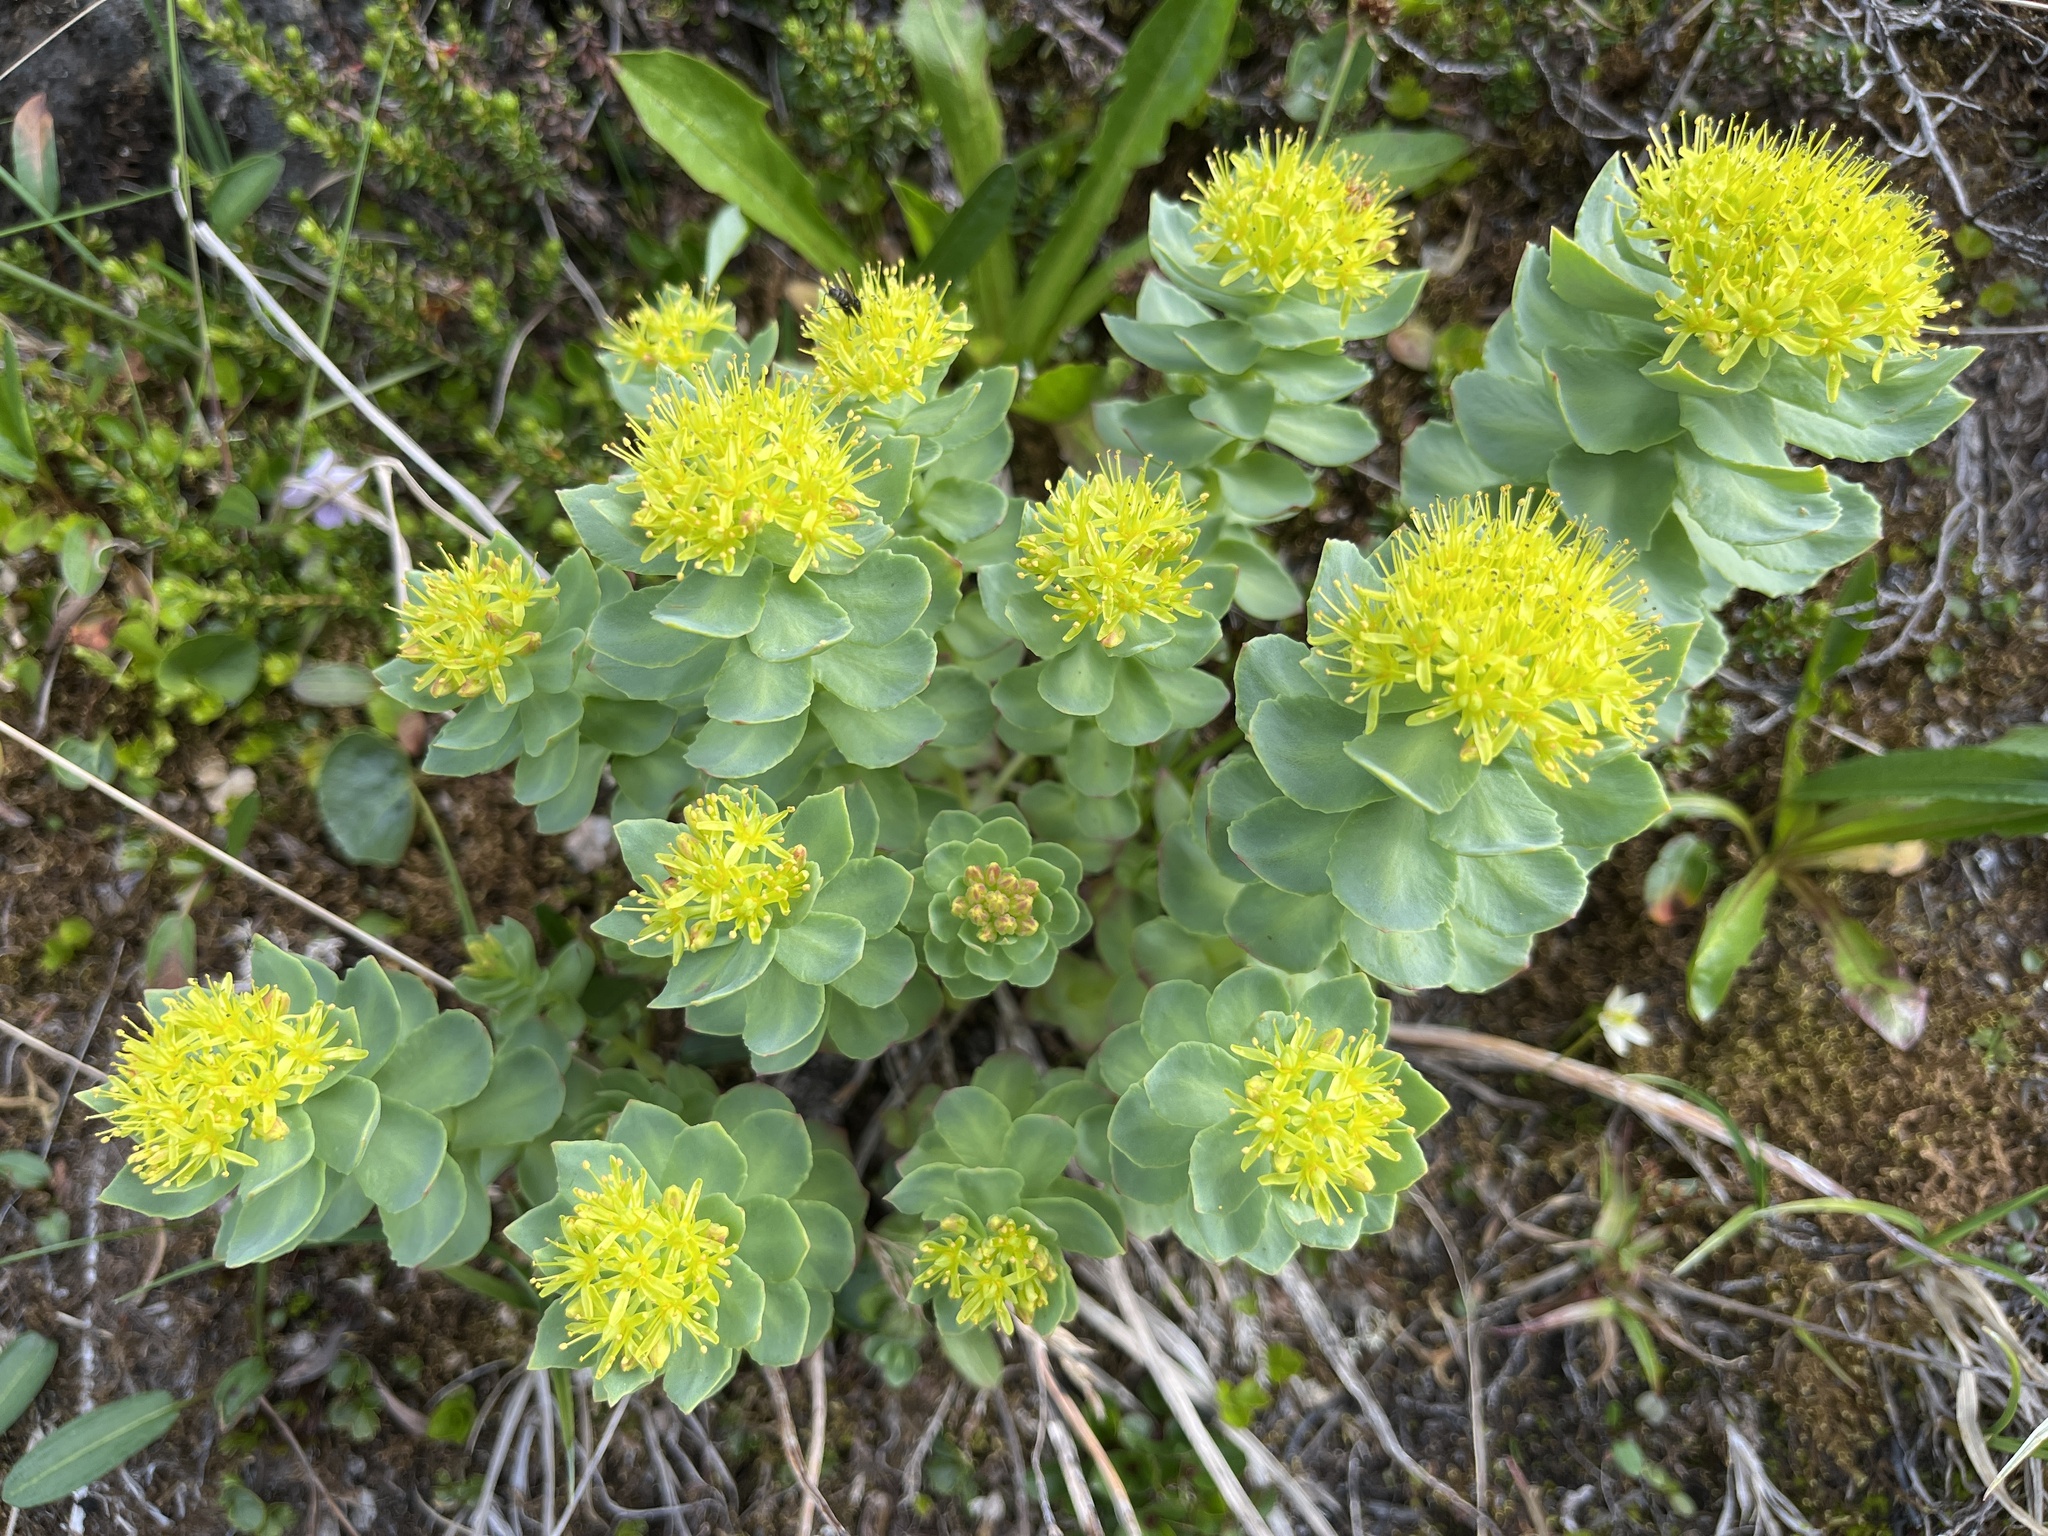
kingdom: Plantae
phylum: Tracheophyta
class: Magnoliopsida
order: Saxifragales
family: Crassulaceae
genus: Rhodiola
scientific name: Rhodiola rosea
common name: Roseroot
